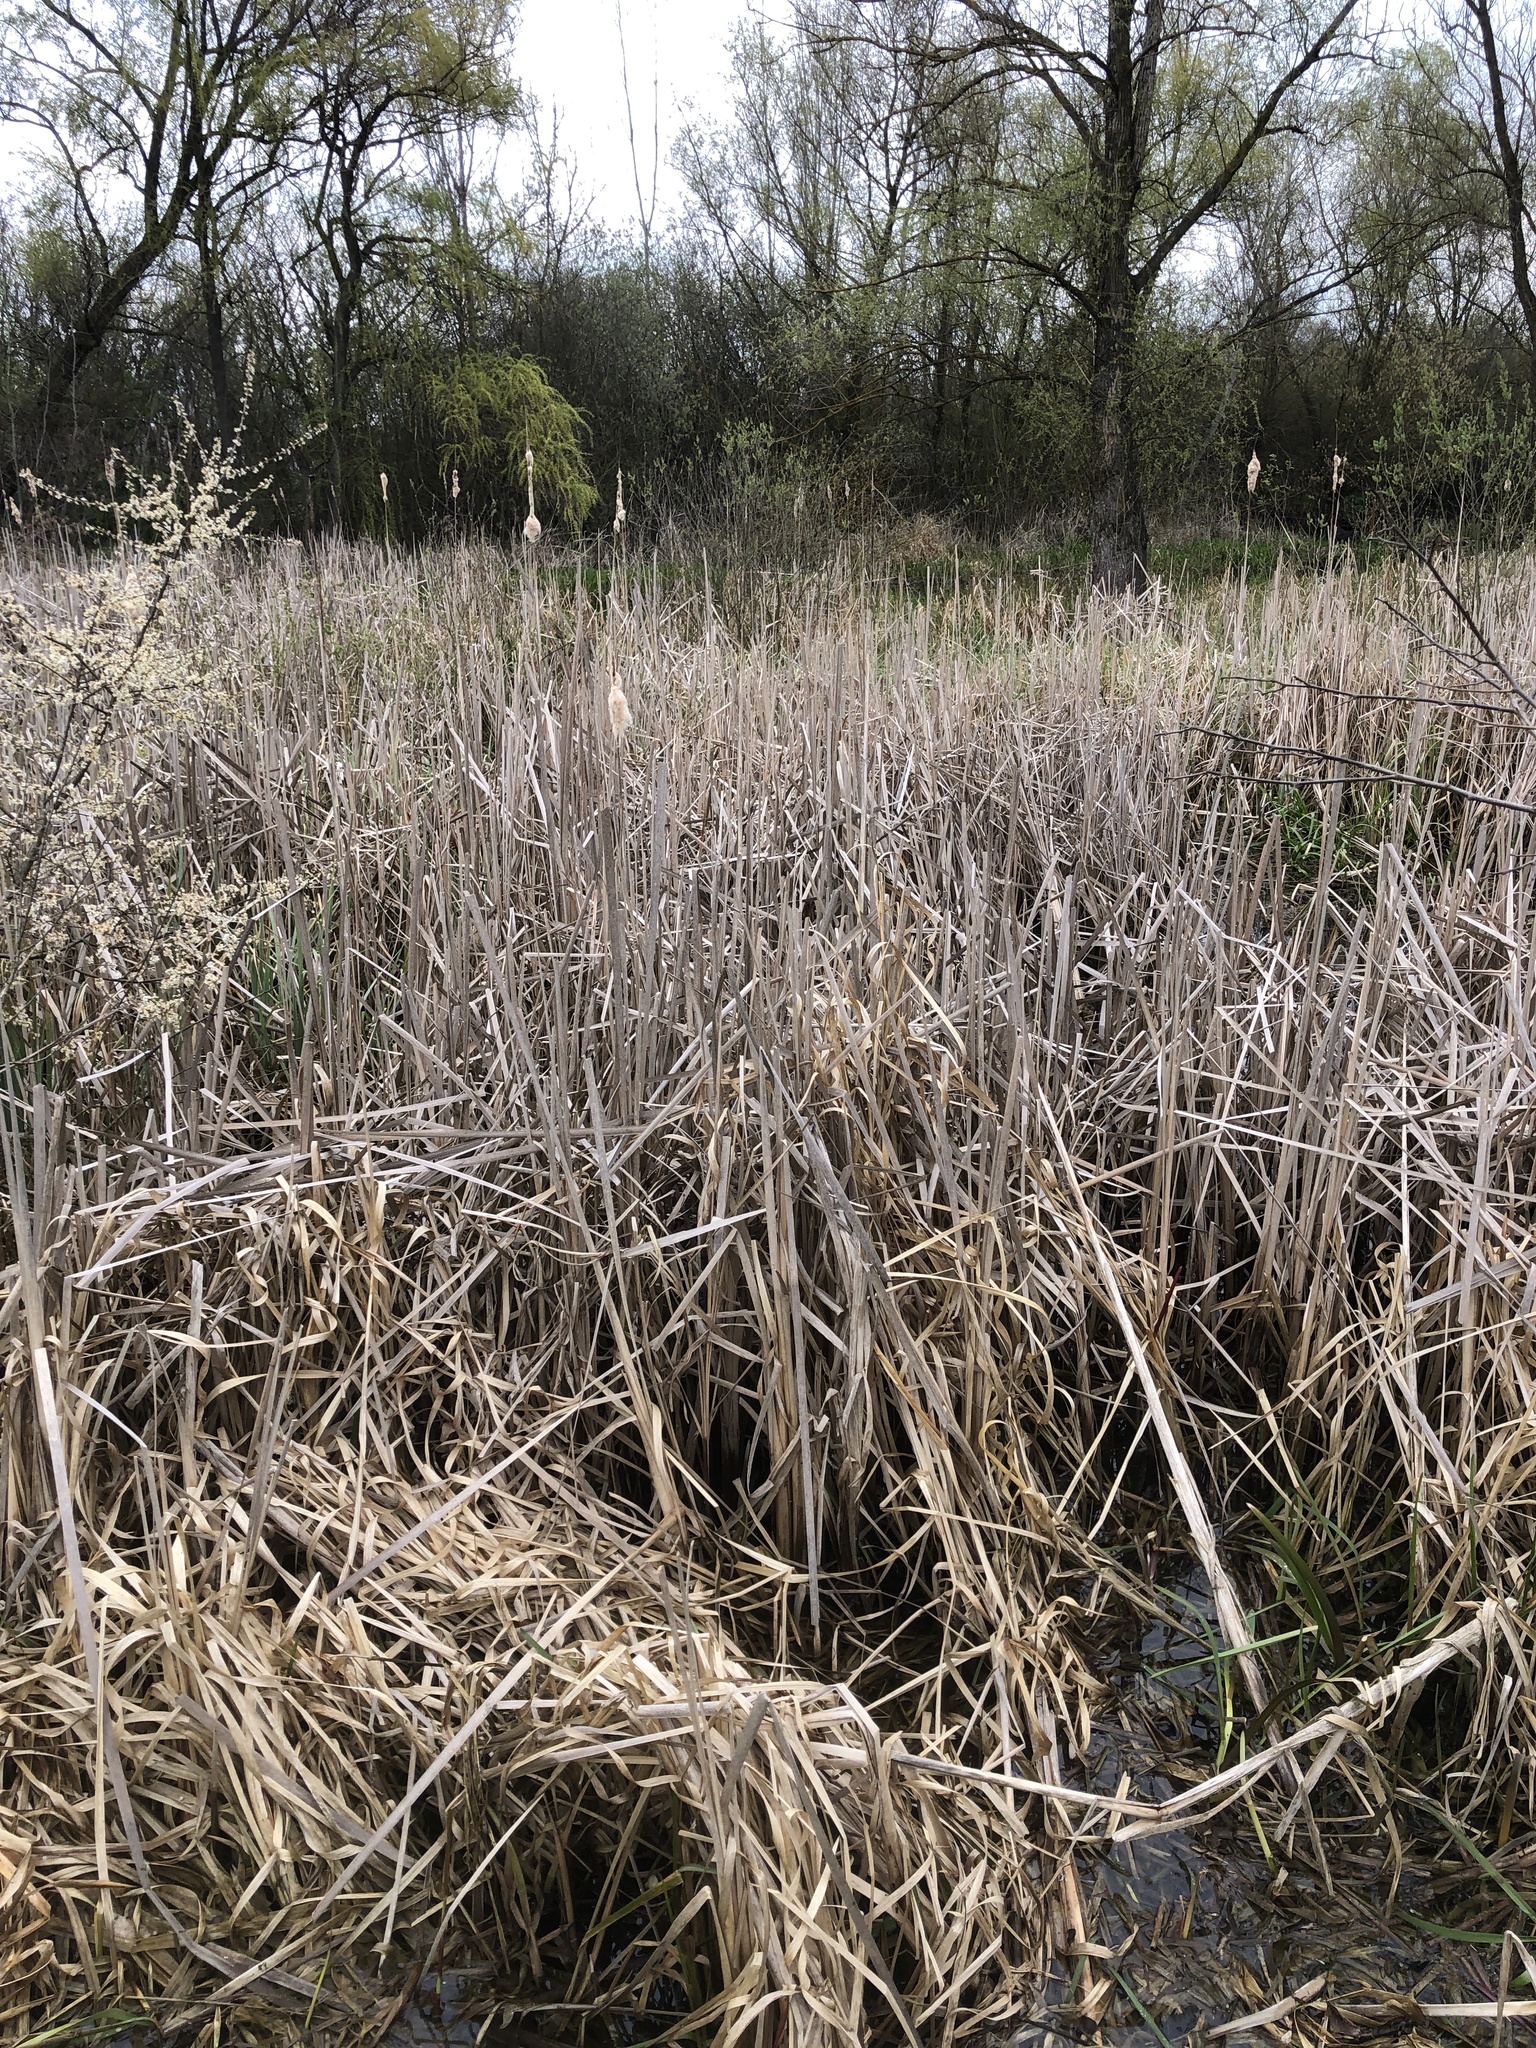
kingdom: Plantae
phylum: Tracheophyta
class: Liliopsida
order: Poales
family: Typhaceae
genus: Typha
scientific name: Typha latifolia
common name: Broadleaf cattail
